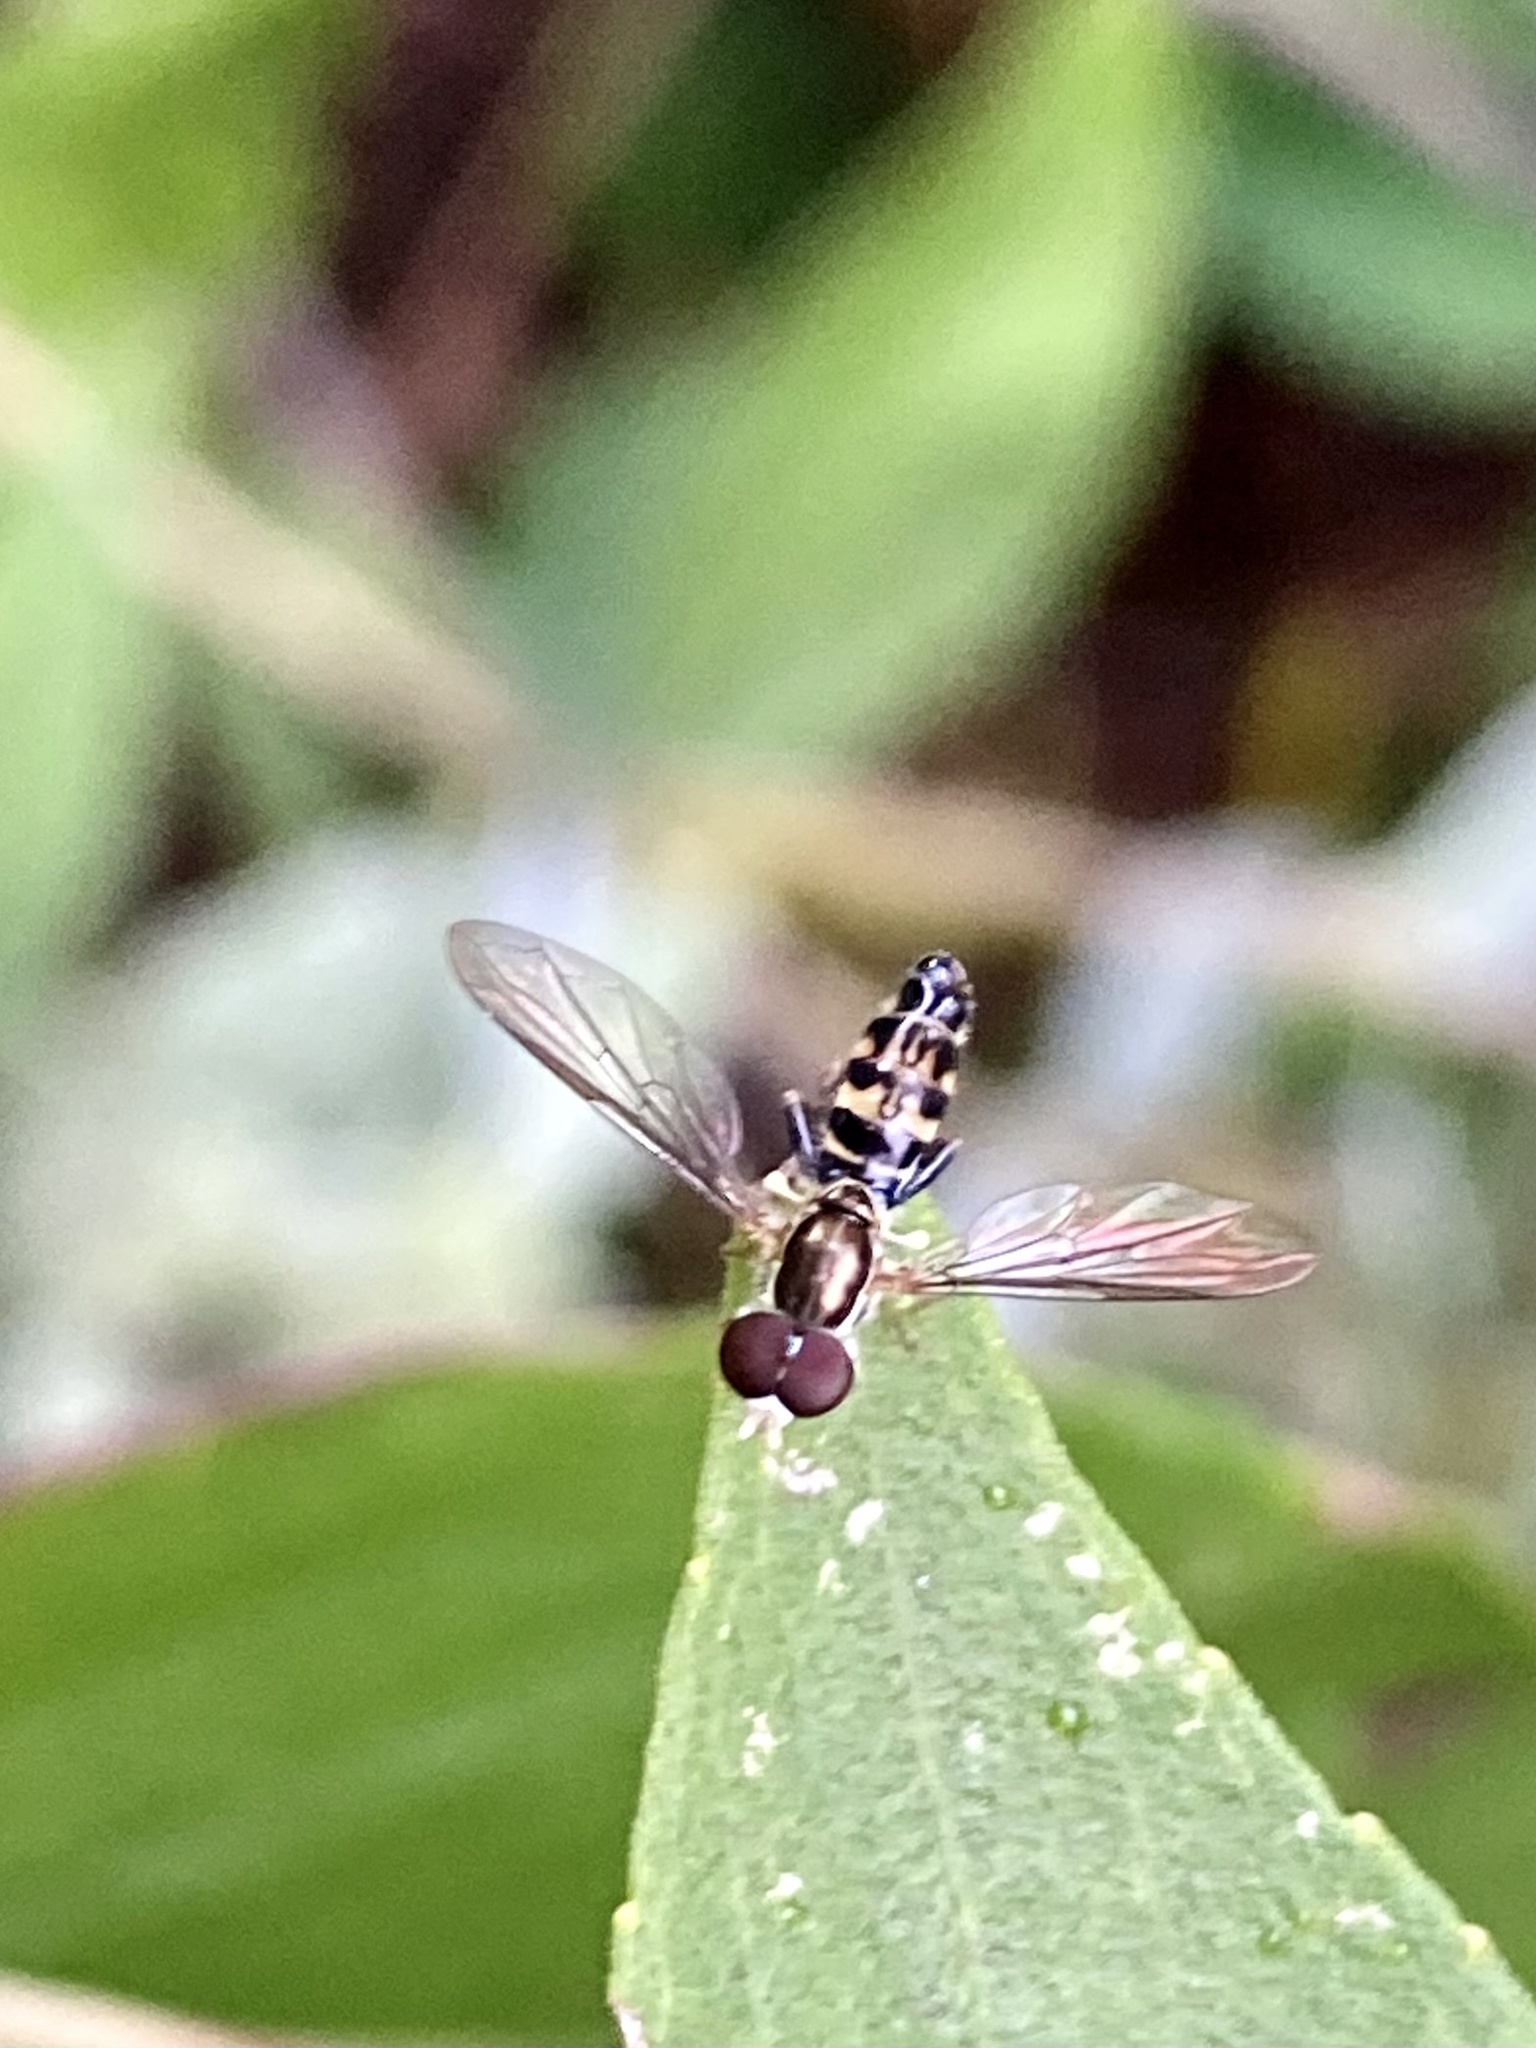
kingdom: Animalia
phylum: Arthropoda
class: Insecta
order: Diptera
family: Syrphidae
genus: Toxomerus
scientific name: Toxomerus geminatus
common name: Eastern calligrapher
